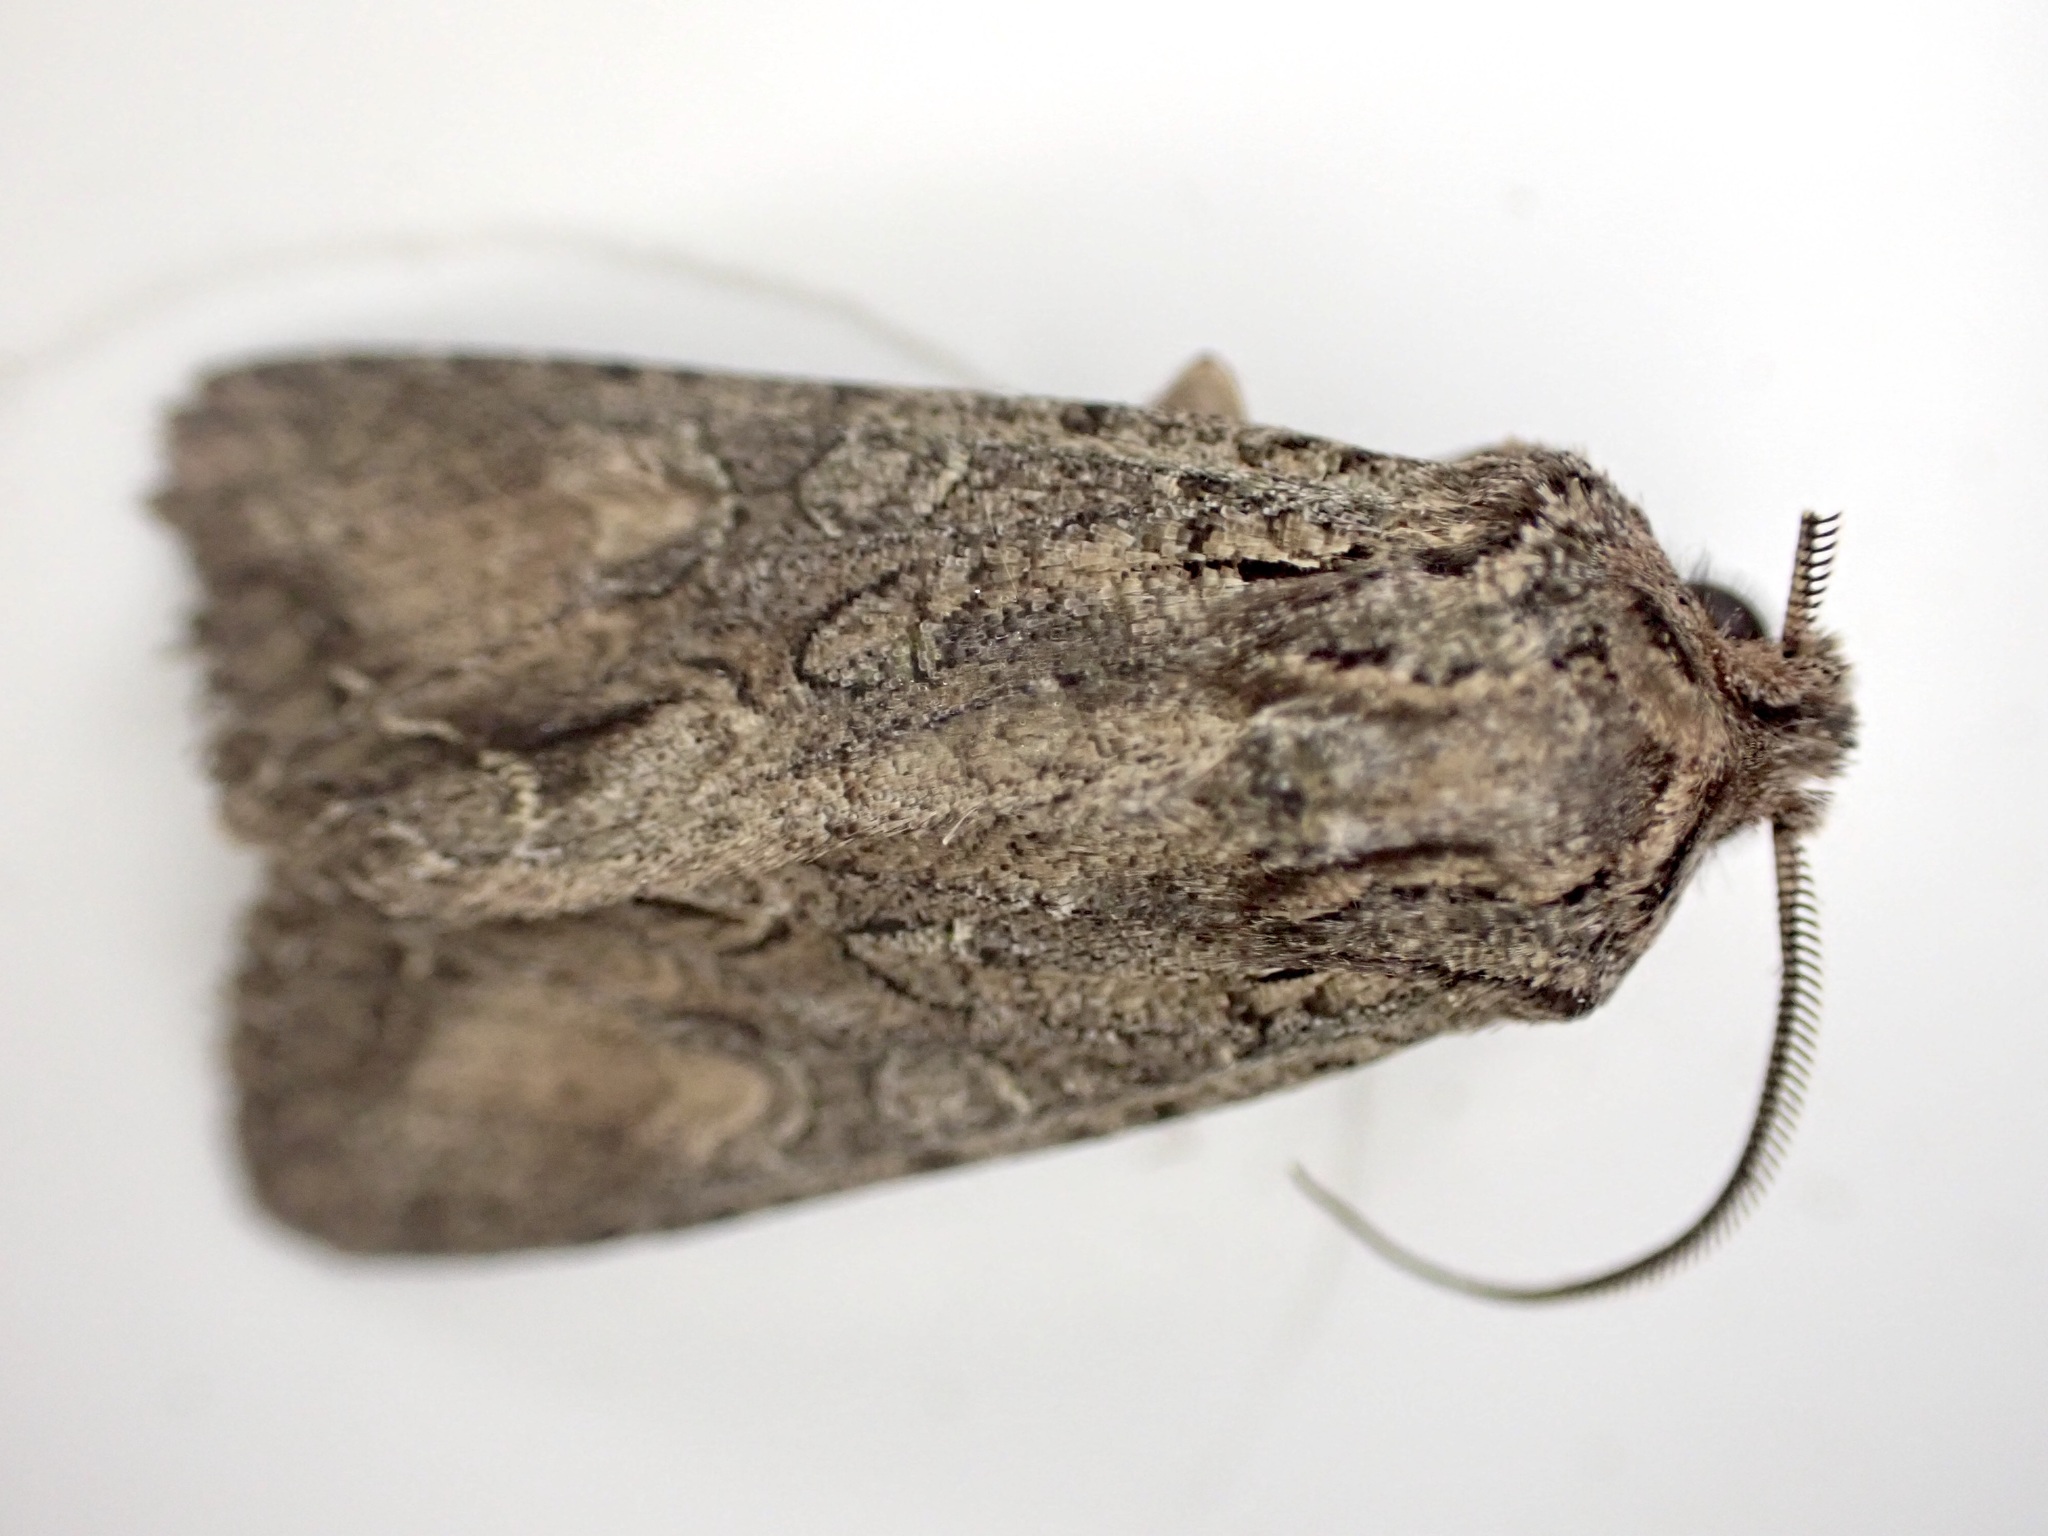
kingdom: Animalia
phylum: Arthropoda
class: Insecta
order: Lepidoptera
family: Noctuidae
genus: Ichneutica
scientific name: Ichneutica mutans
